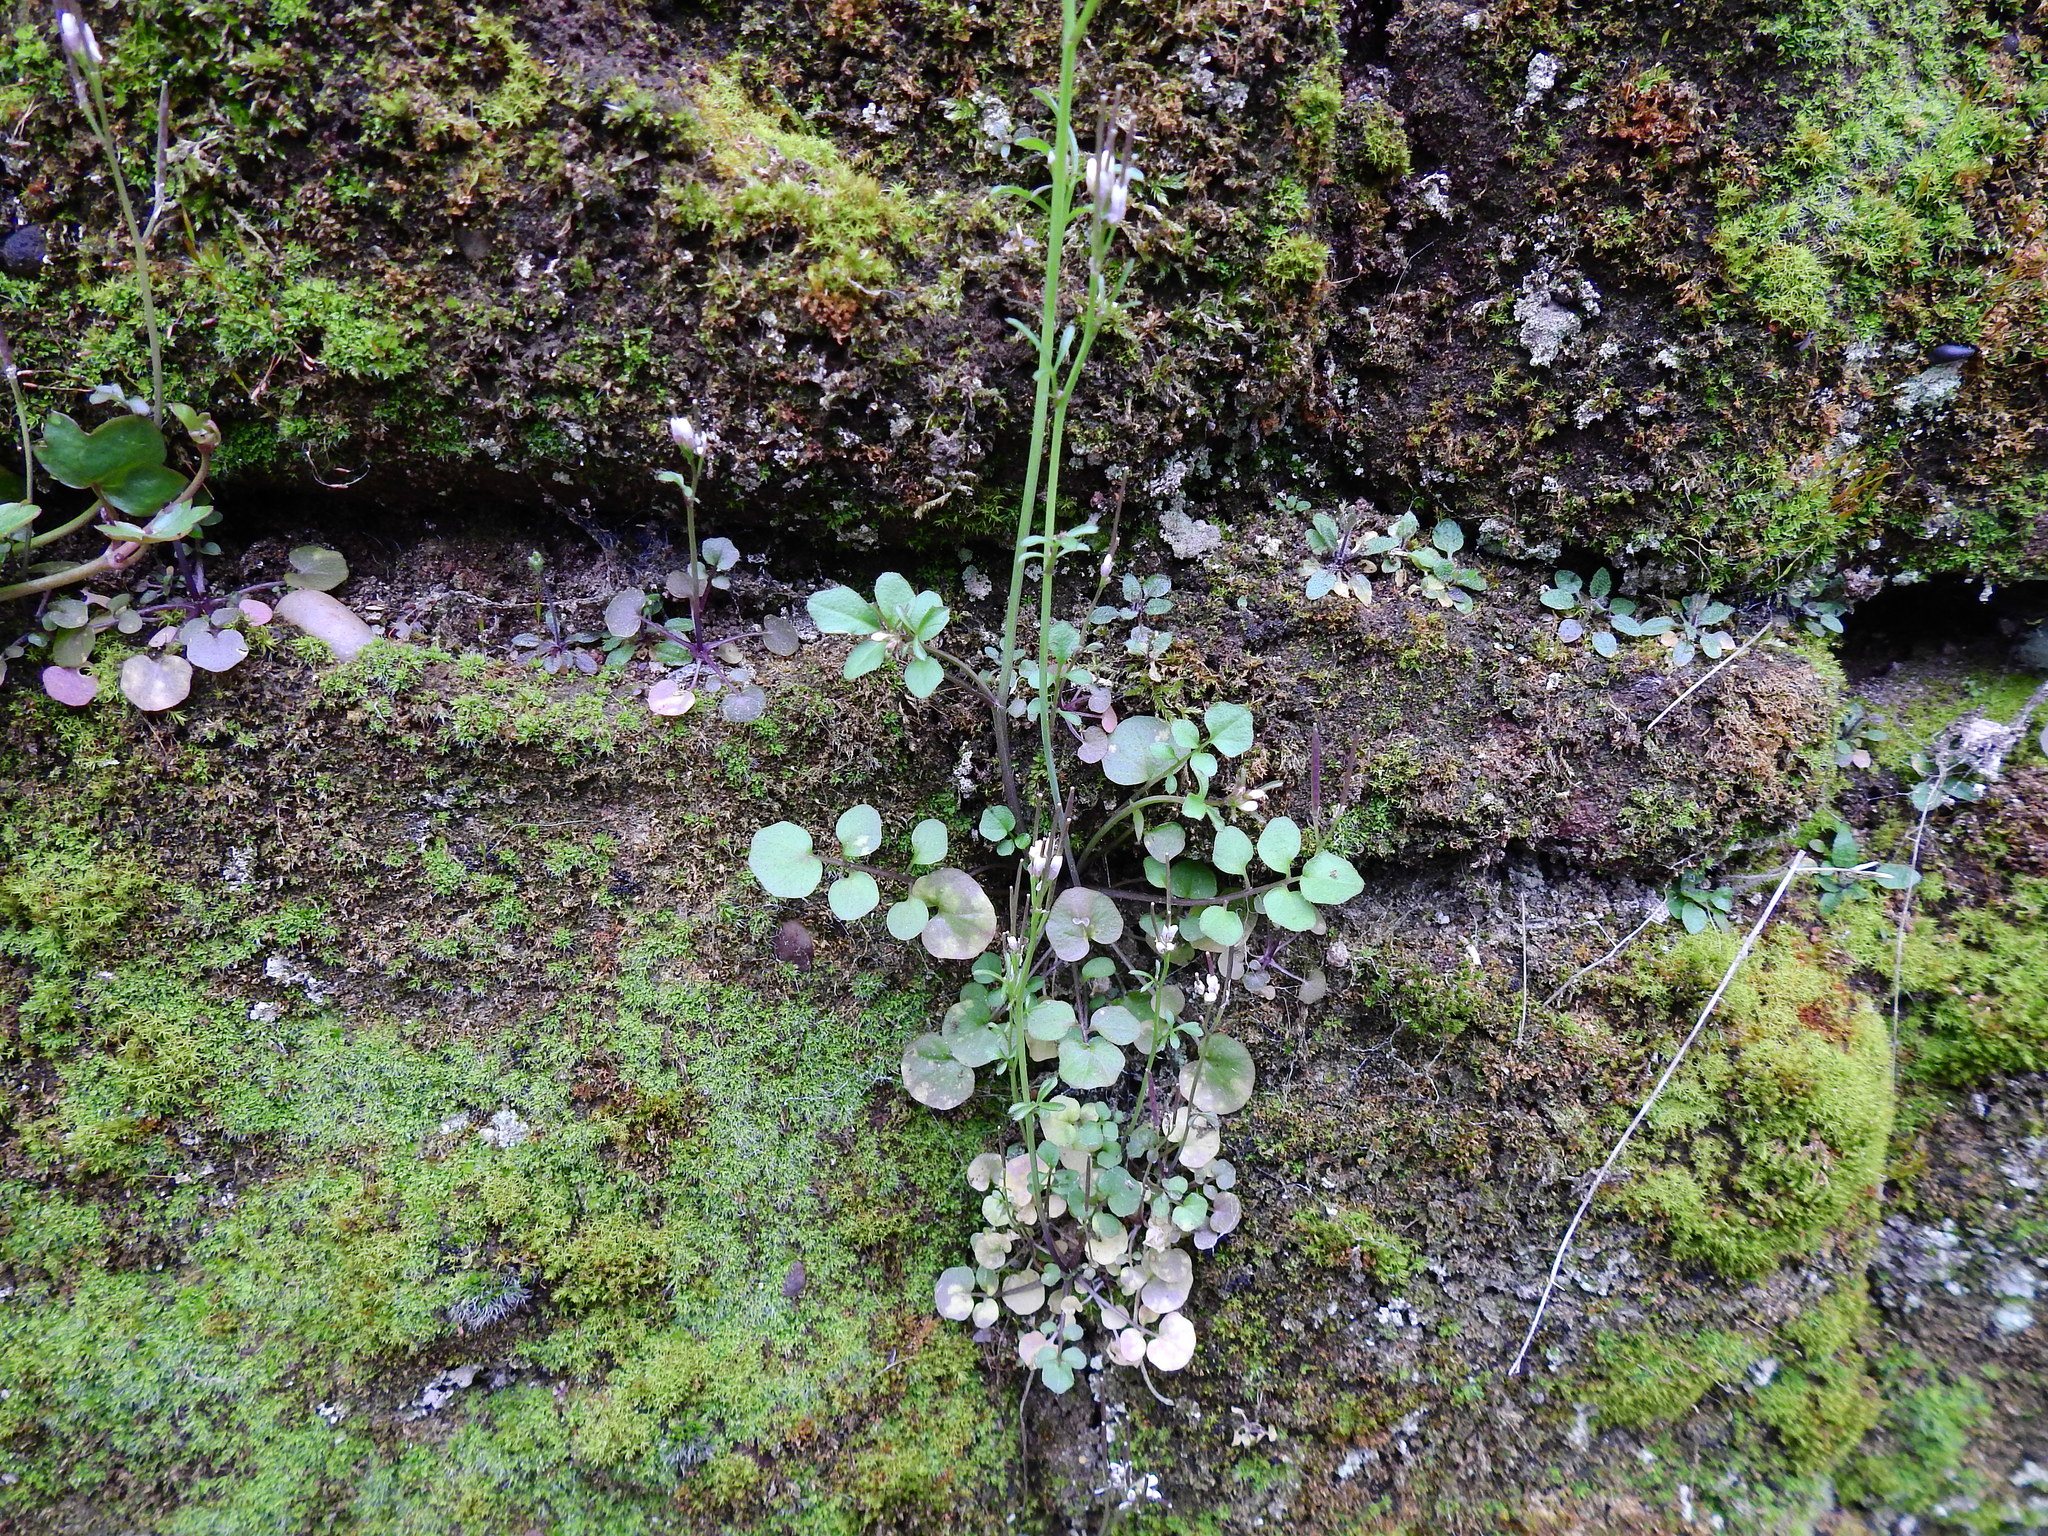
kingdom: Plantae
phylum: Tracheophyta
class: Magnoliopsida
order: Brassicales
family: Brassicaceae
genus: Cardamine
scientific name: Cardamine hirsuta
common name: Hairy bittercress
